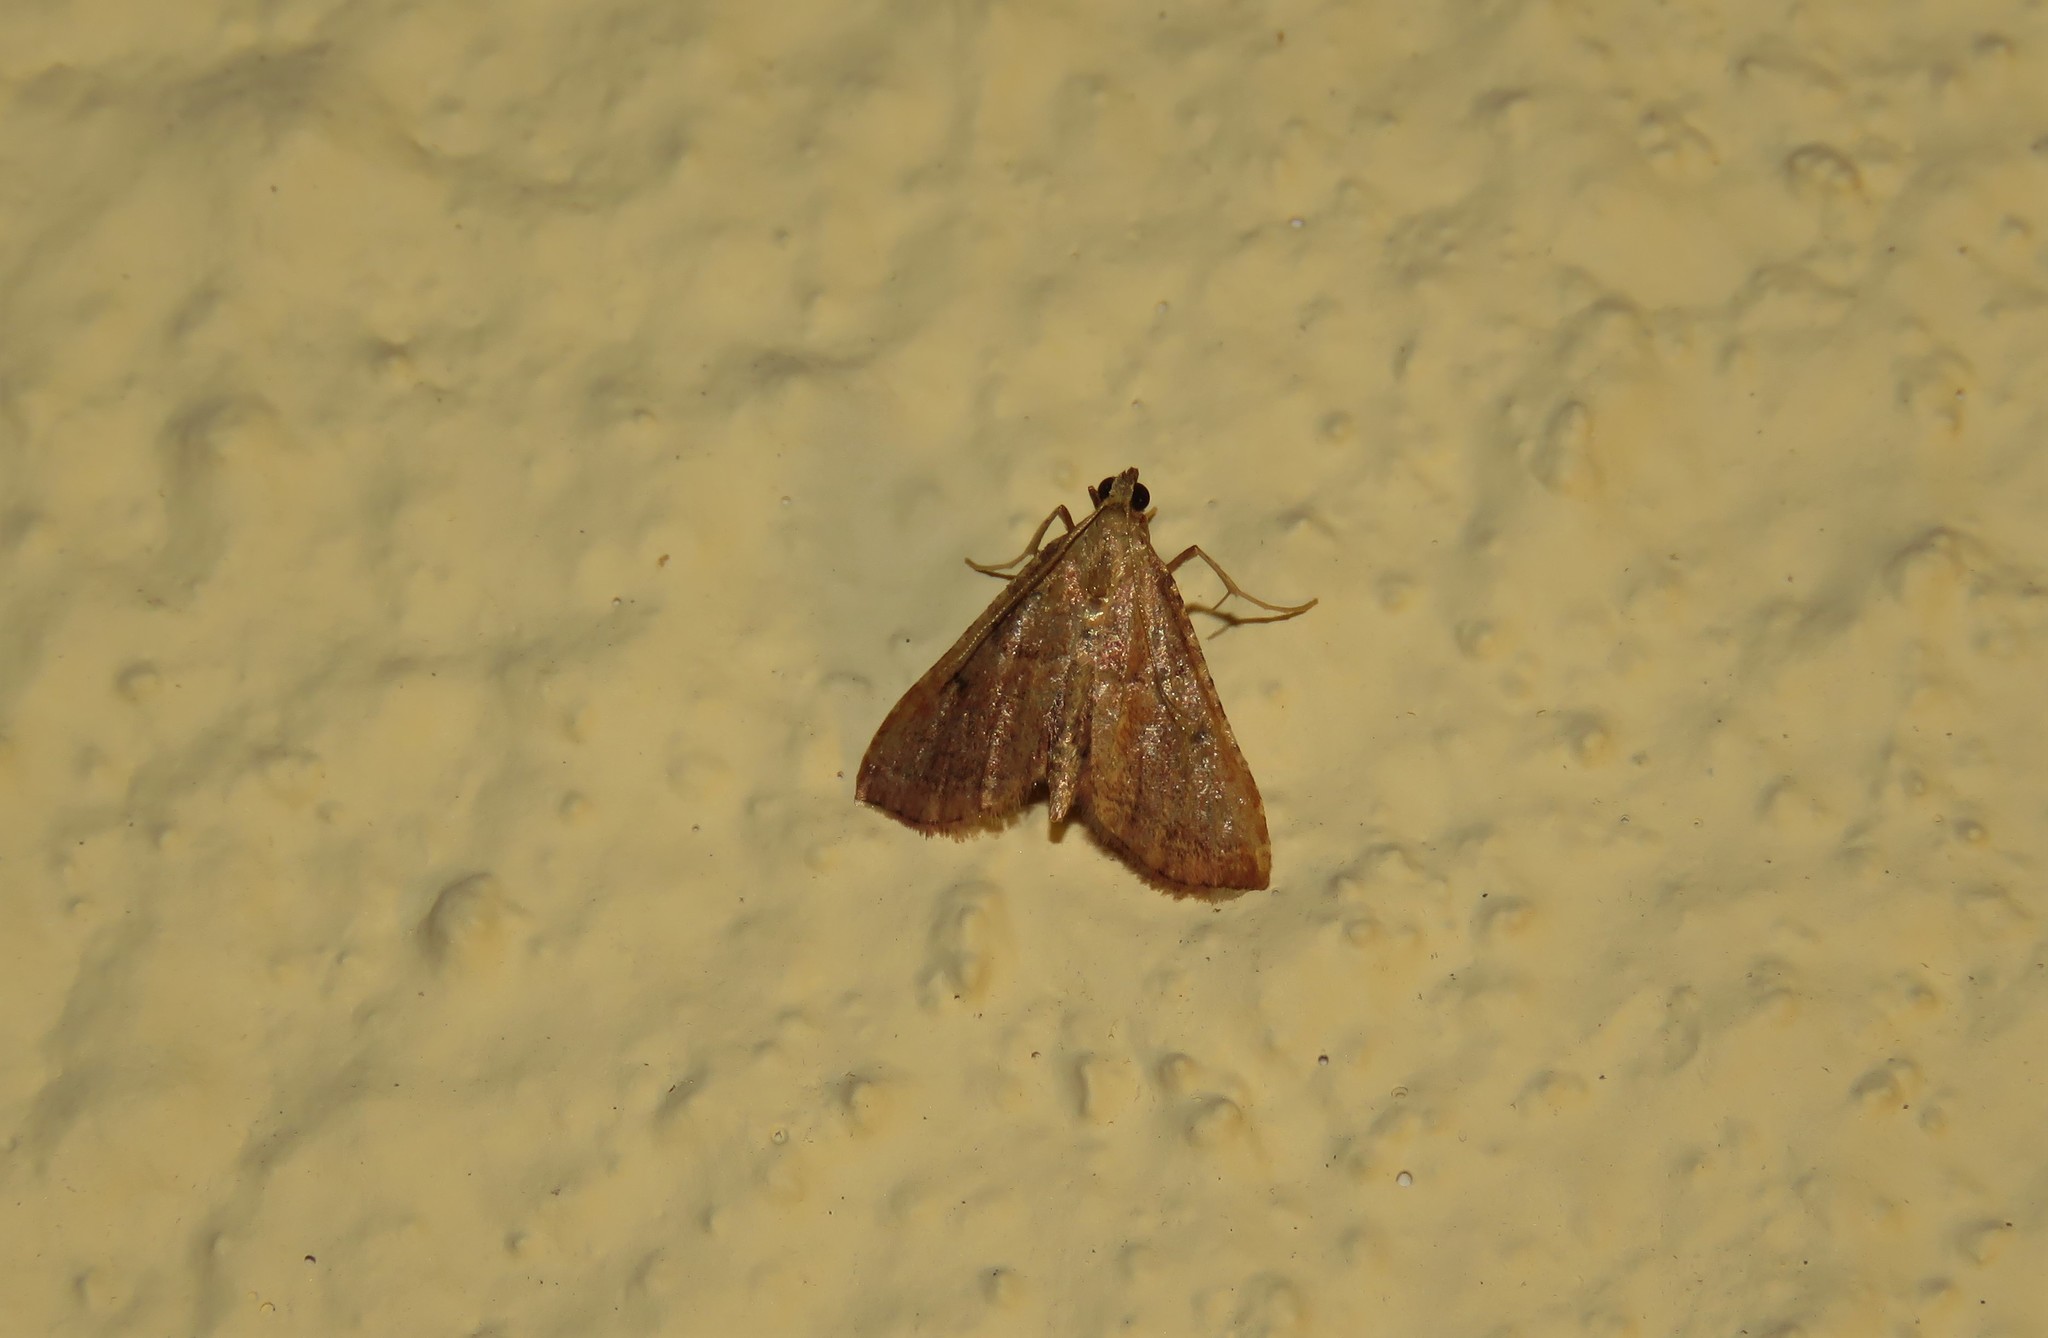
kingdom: Animalia
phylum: Arthropoda
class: Insecta
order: Lepidoptera
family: Pyralidae
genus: Endotricha
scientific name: Endotricha flammealis
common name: Rosy tabby
